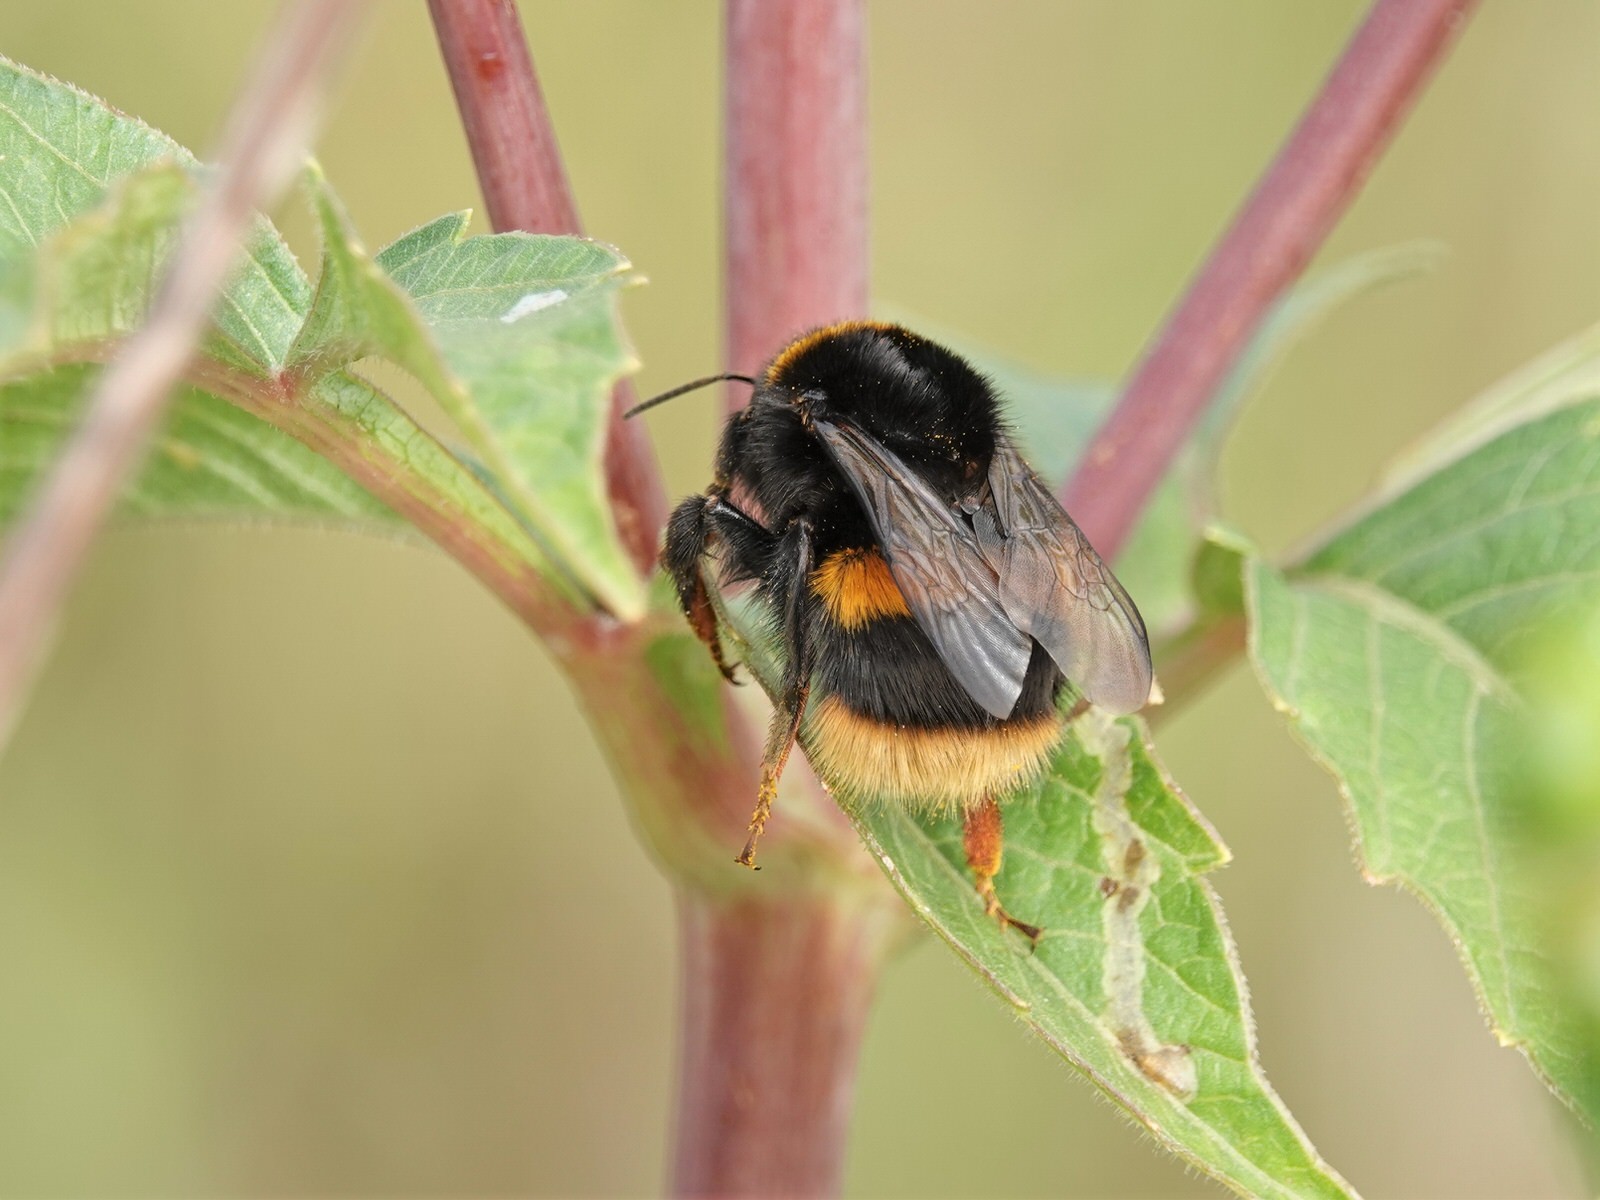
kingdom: Animalia
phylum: Arthropoda
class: Insecta
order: Hymenoptera
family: Apidae
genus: Bombus
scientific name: Bombus terrestris
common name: Buff-tailed bumblebee
